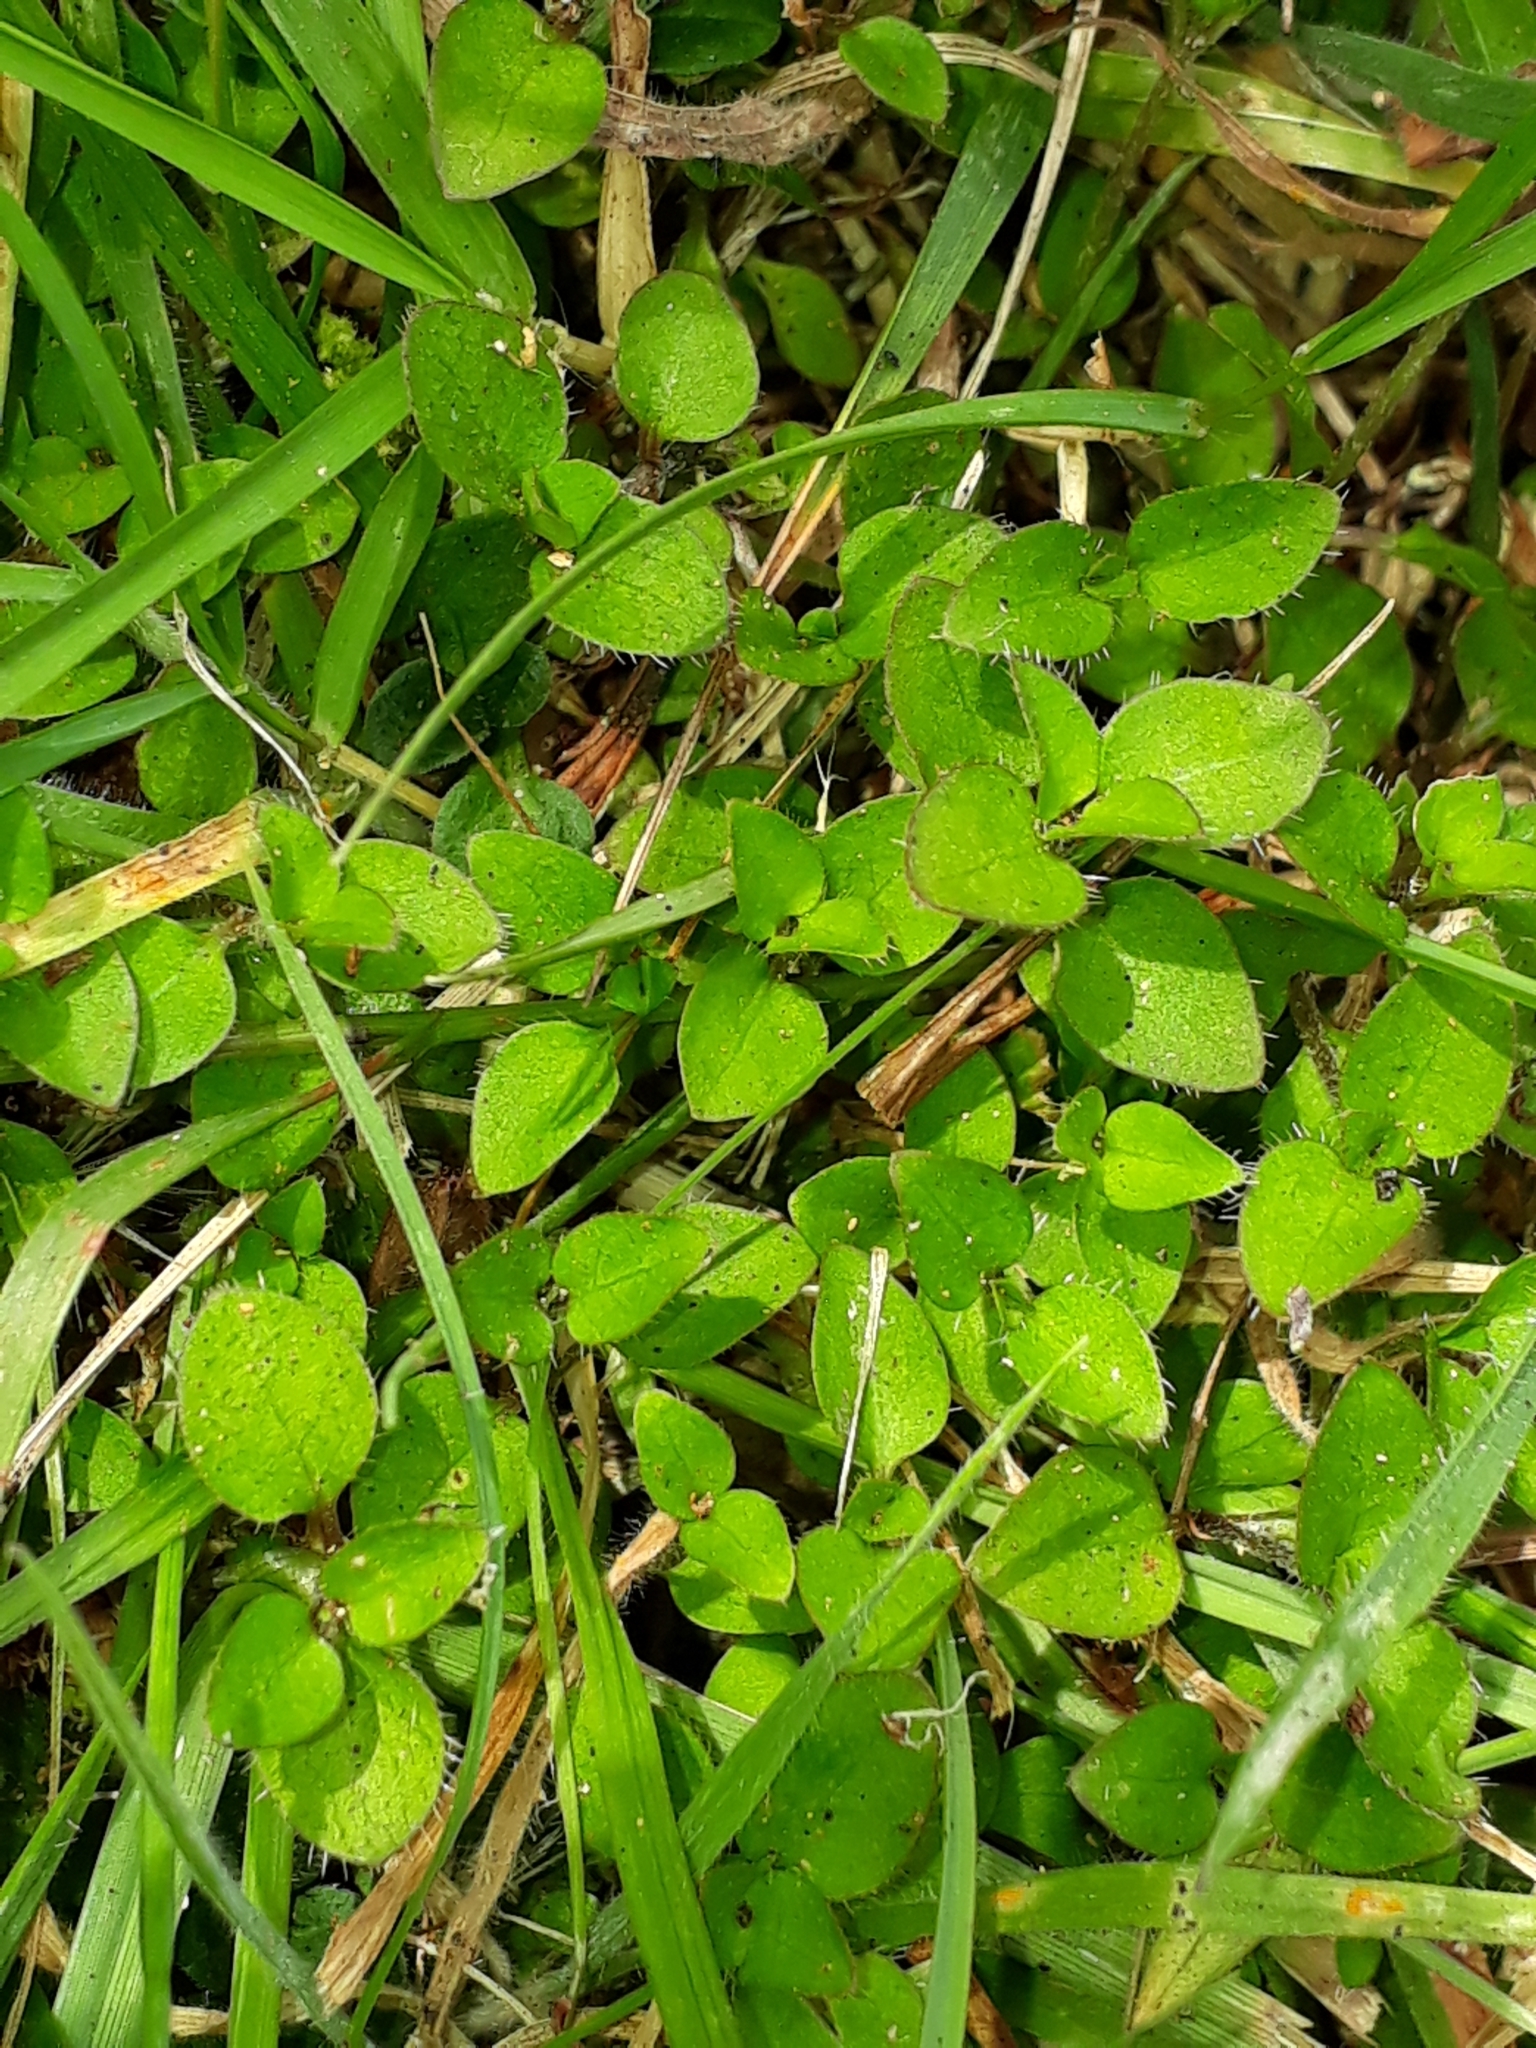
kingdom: Plantae
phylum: Tracheophyta
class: Magnoliopsida
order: Gentianales
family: Rubiaceae
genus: Leptostigma
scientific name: Leptostigma setulosum
